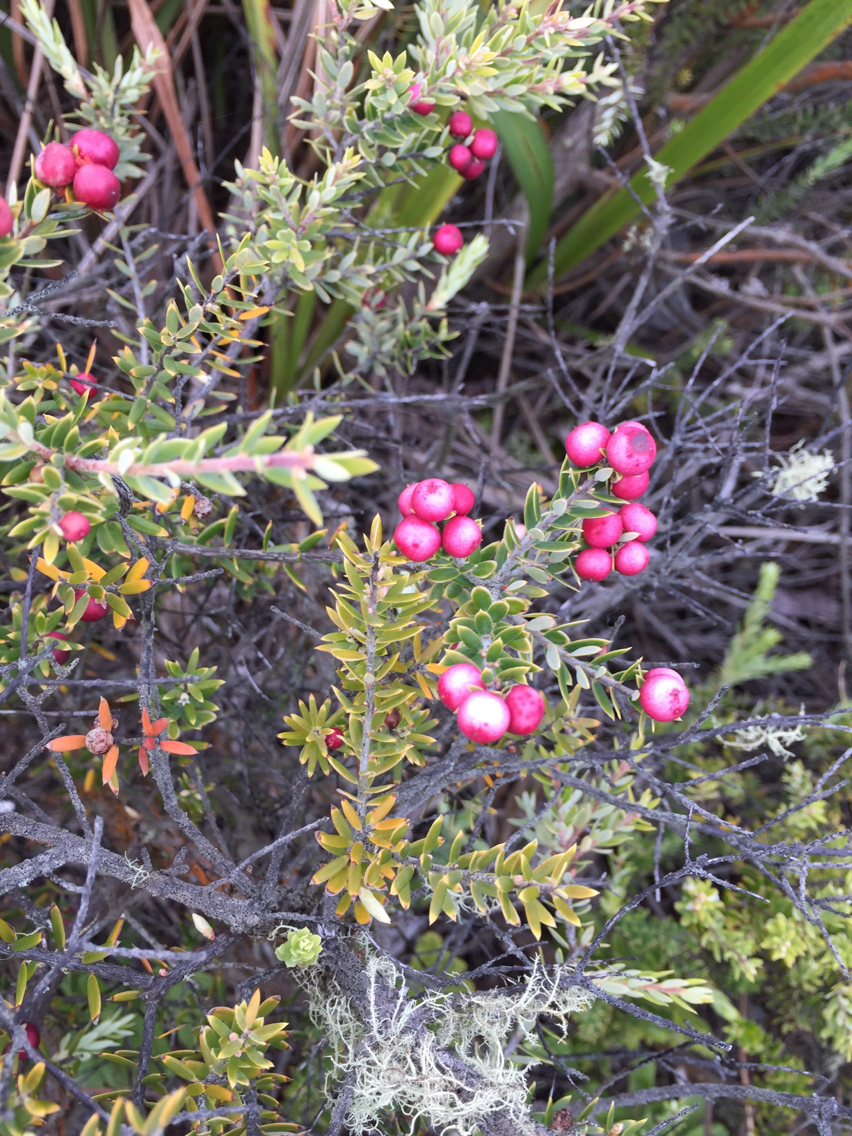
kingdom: Plantae
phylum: Tracheophyta
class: Magnoliopsida
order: Ericales
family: Ericaceae
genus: Leptecophylla
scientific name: Leptecophylla tameiameiae
